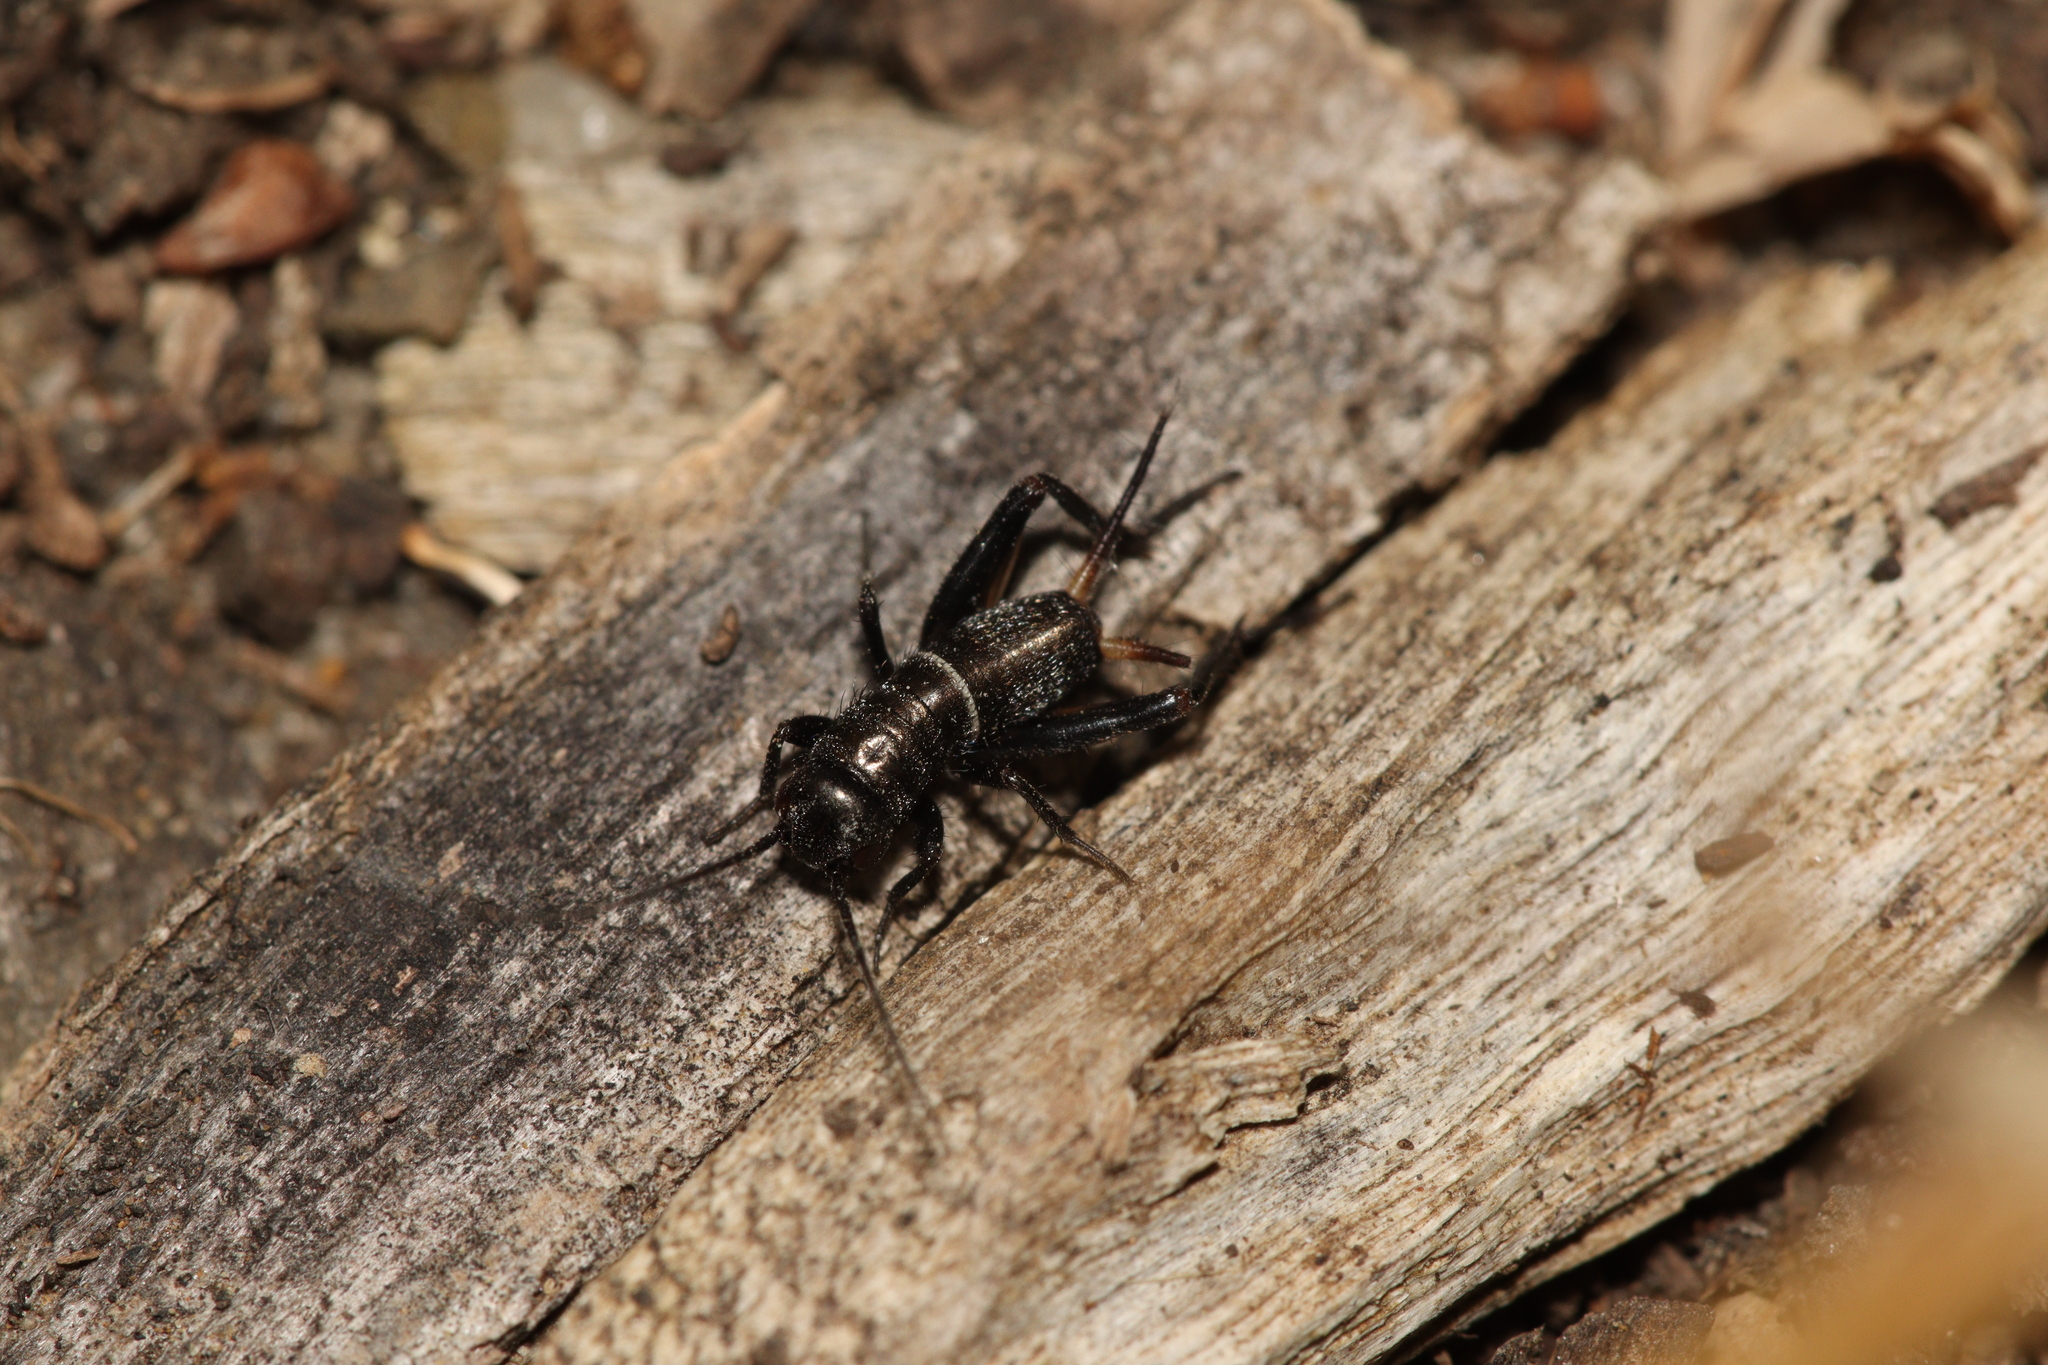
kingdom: Animalia
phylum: Arthropoda
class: Insecta
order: Orthoptera
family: Gryllidae
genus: Teleogryllus
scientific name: Teleogryllus commodus
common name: Black field cricket
